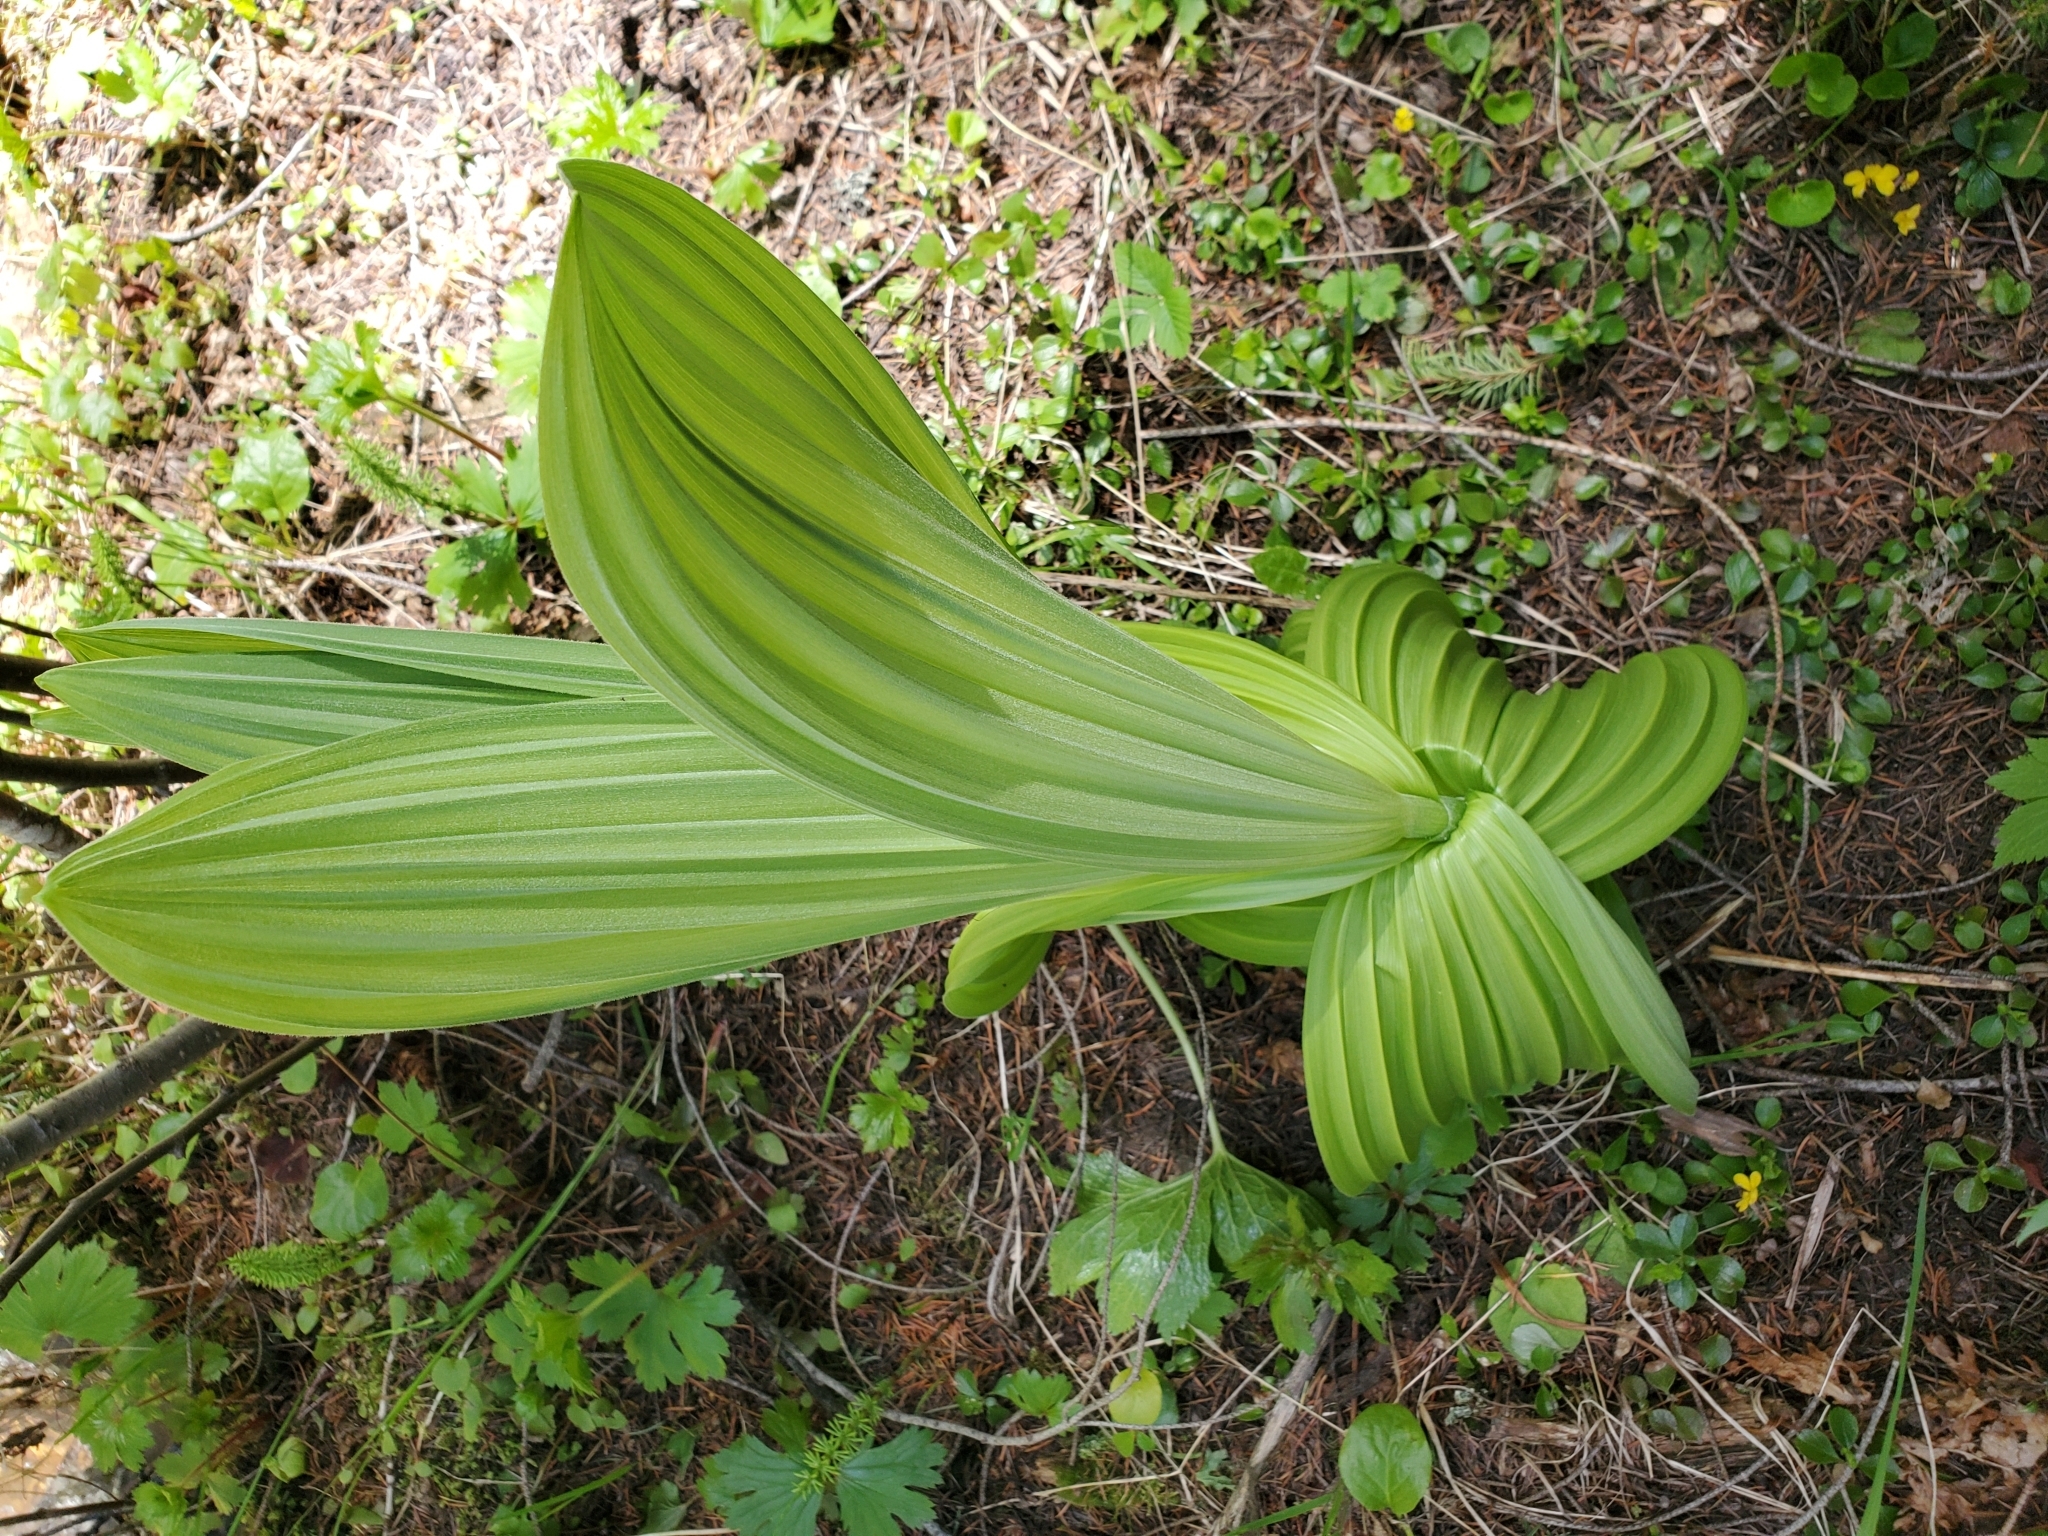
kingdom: Plantae
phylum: Tracheophyta
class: Liliopsida
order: Liliales
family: Melanthiaceae
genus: Veratrum
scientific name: Veratrum viride
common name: American false hellebore
